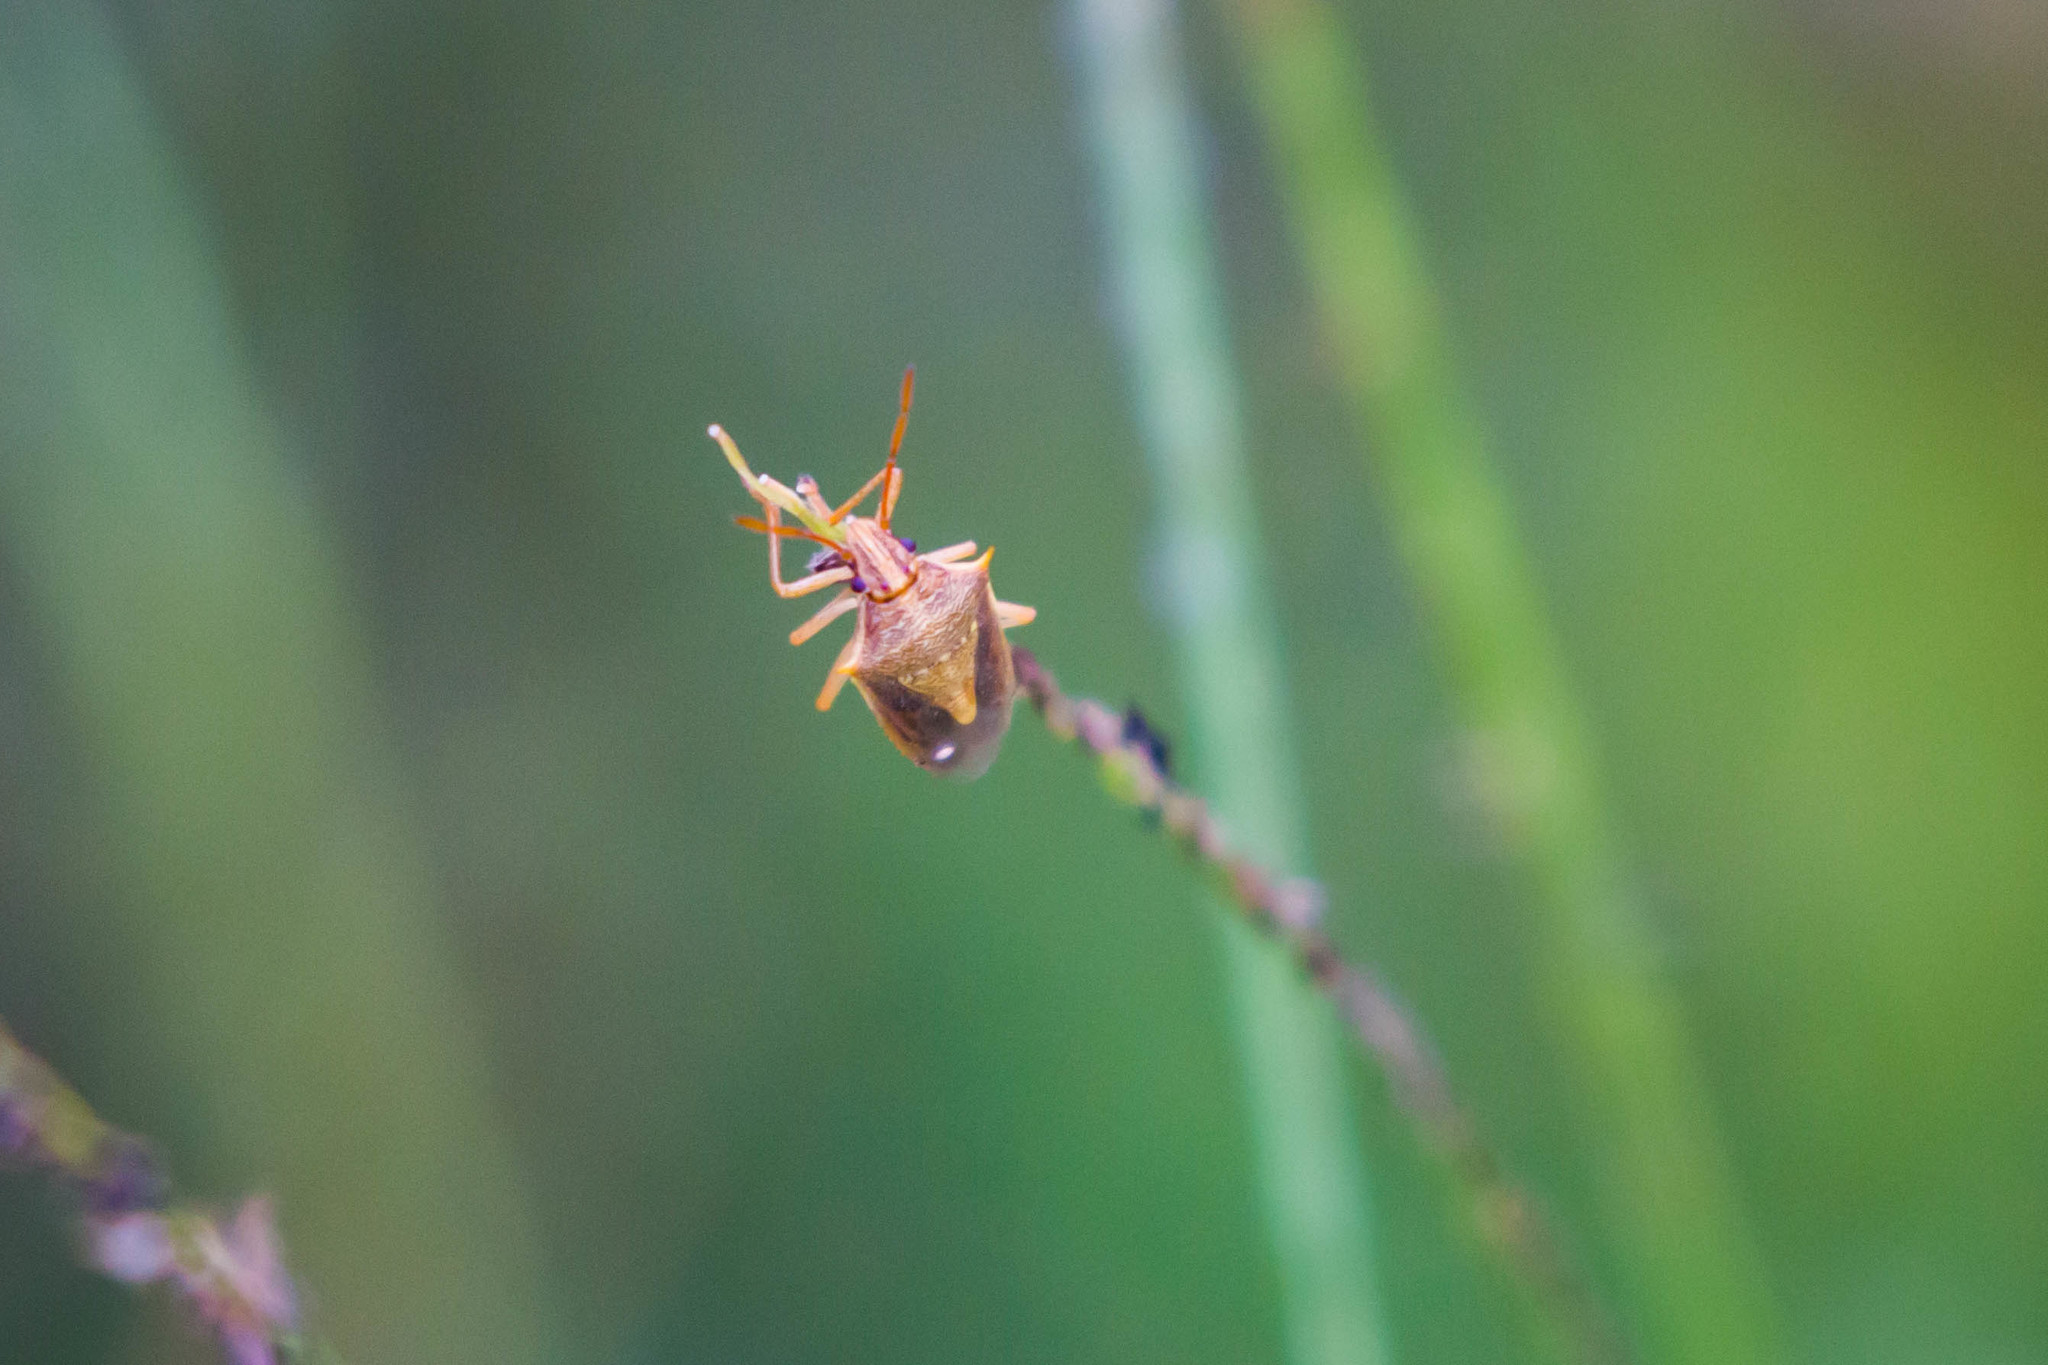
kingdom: Animalia
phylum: Arthropoda
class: Insecta
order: Hemiptera
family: Pentatomidae
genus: Oebalus
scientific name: Oebalus pugnax
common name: Rice stink bug
